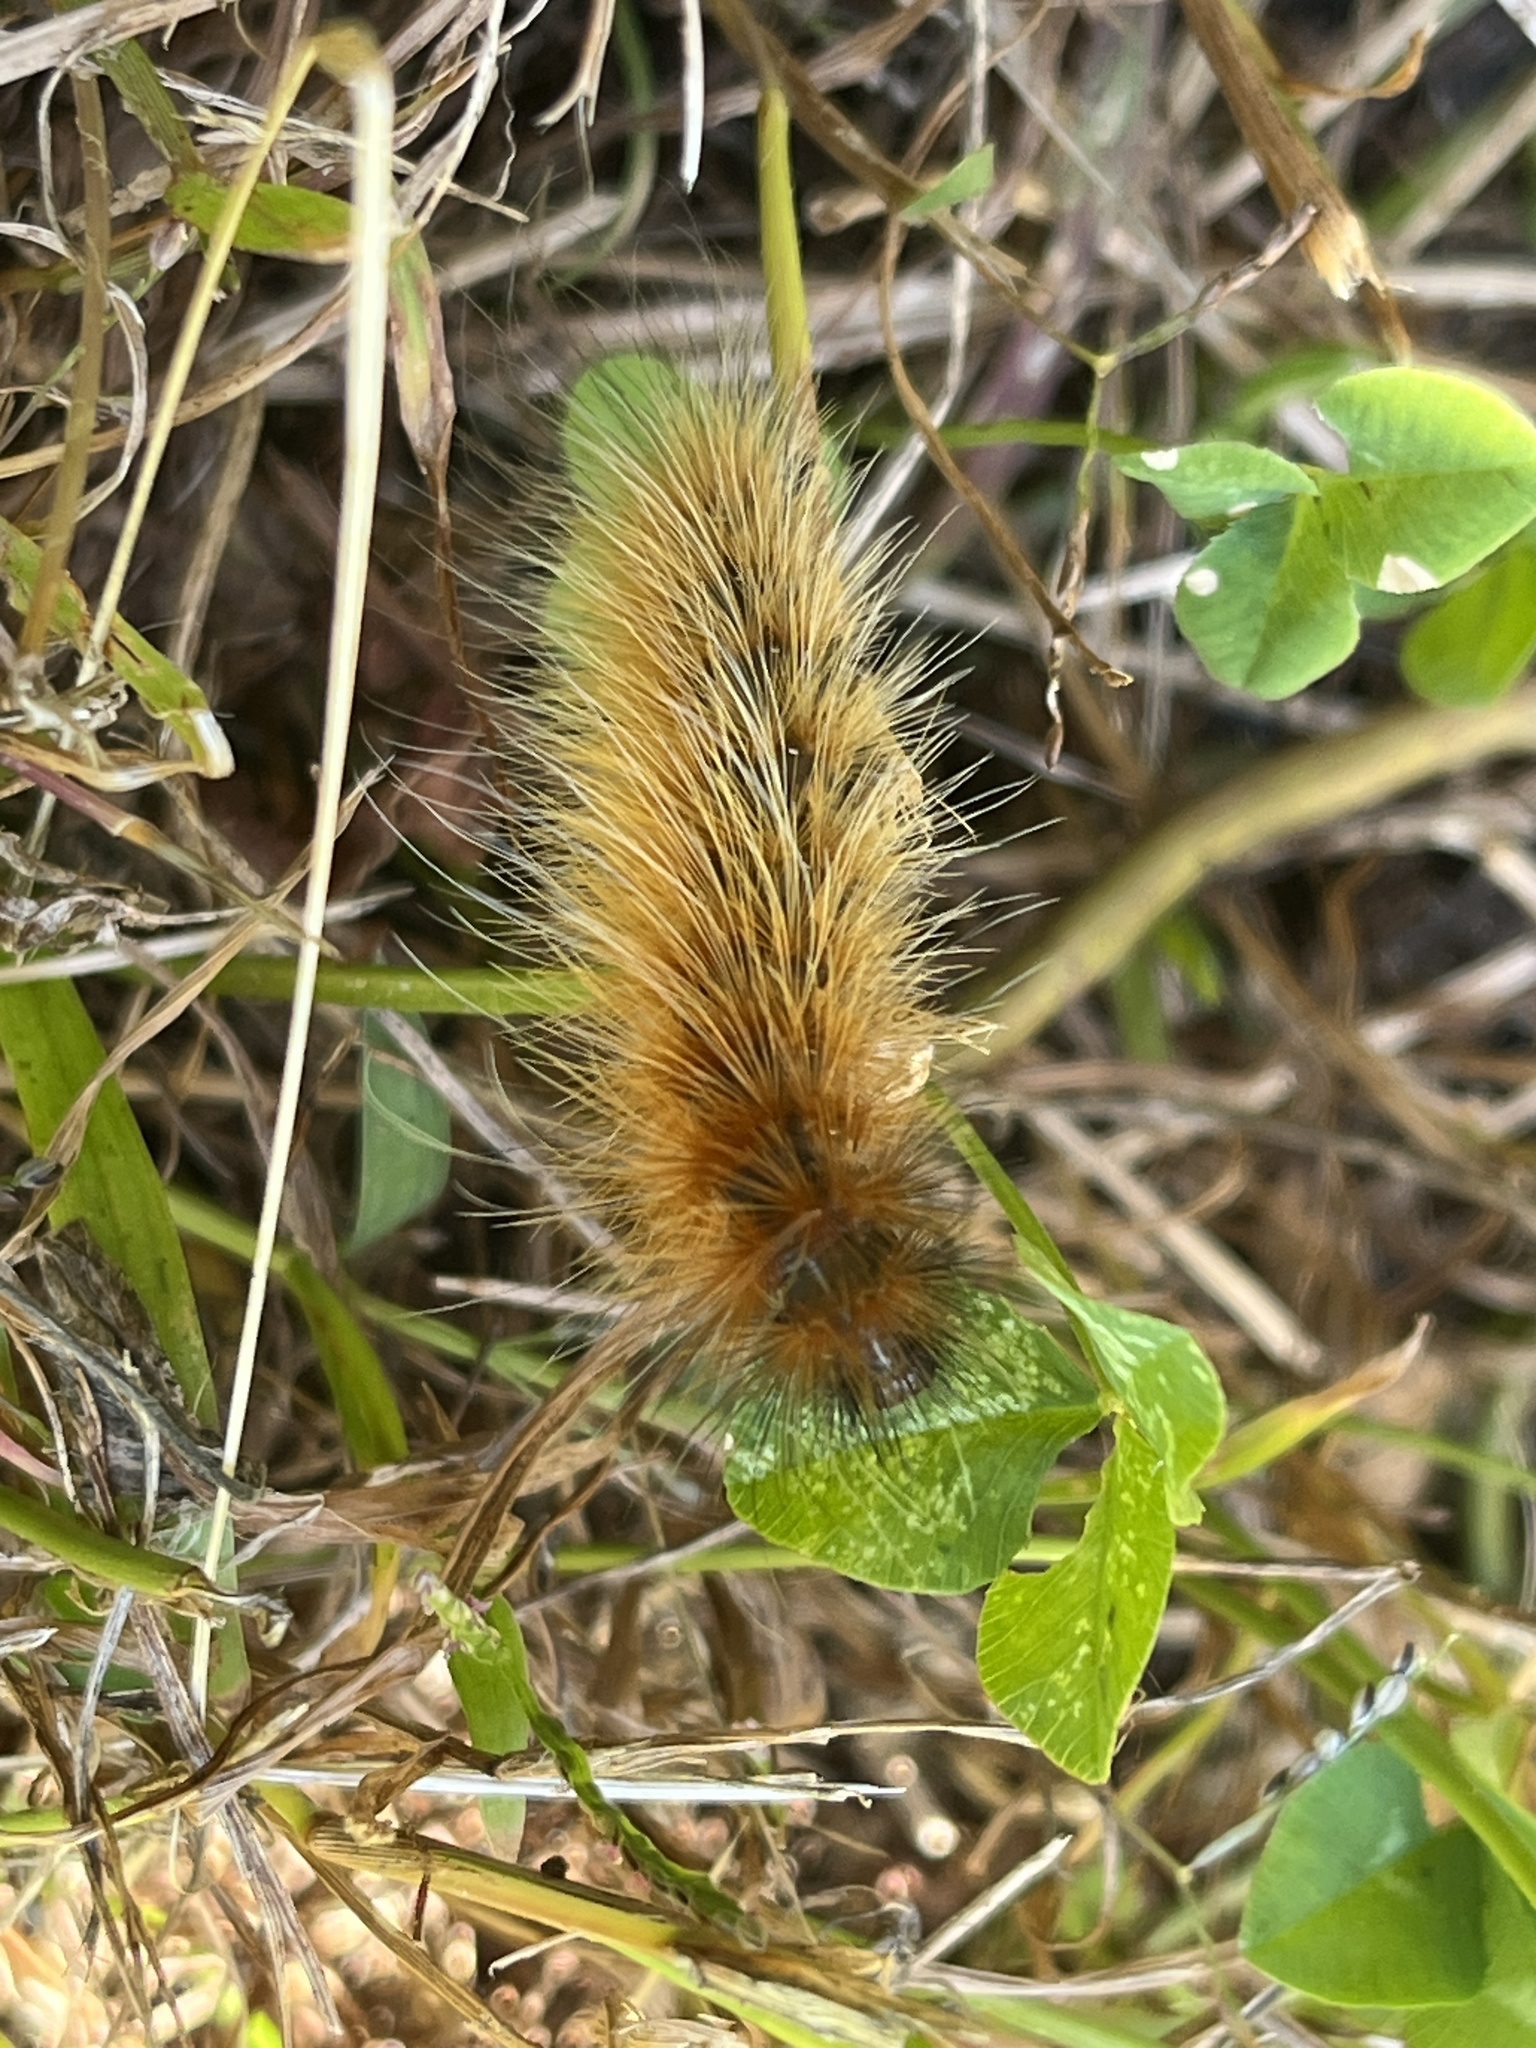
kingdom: Animalia
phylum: Arthropoda
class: Insecta
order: Lepidoptera
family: Erebidae
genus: Spilosoma
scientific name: Spilosoma virginica
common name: Virginia tiger moth
